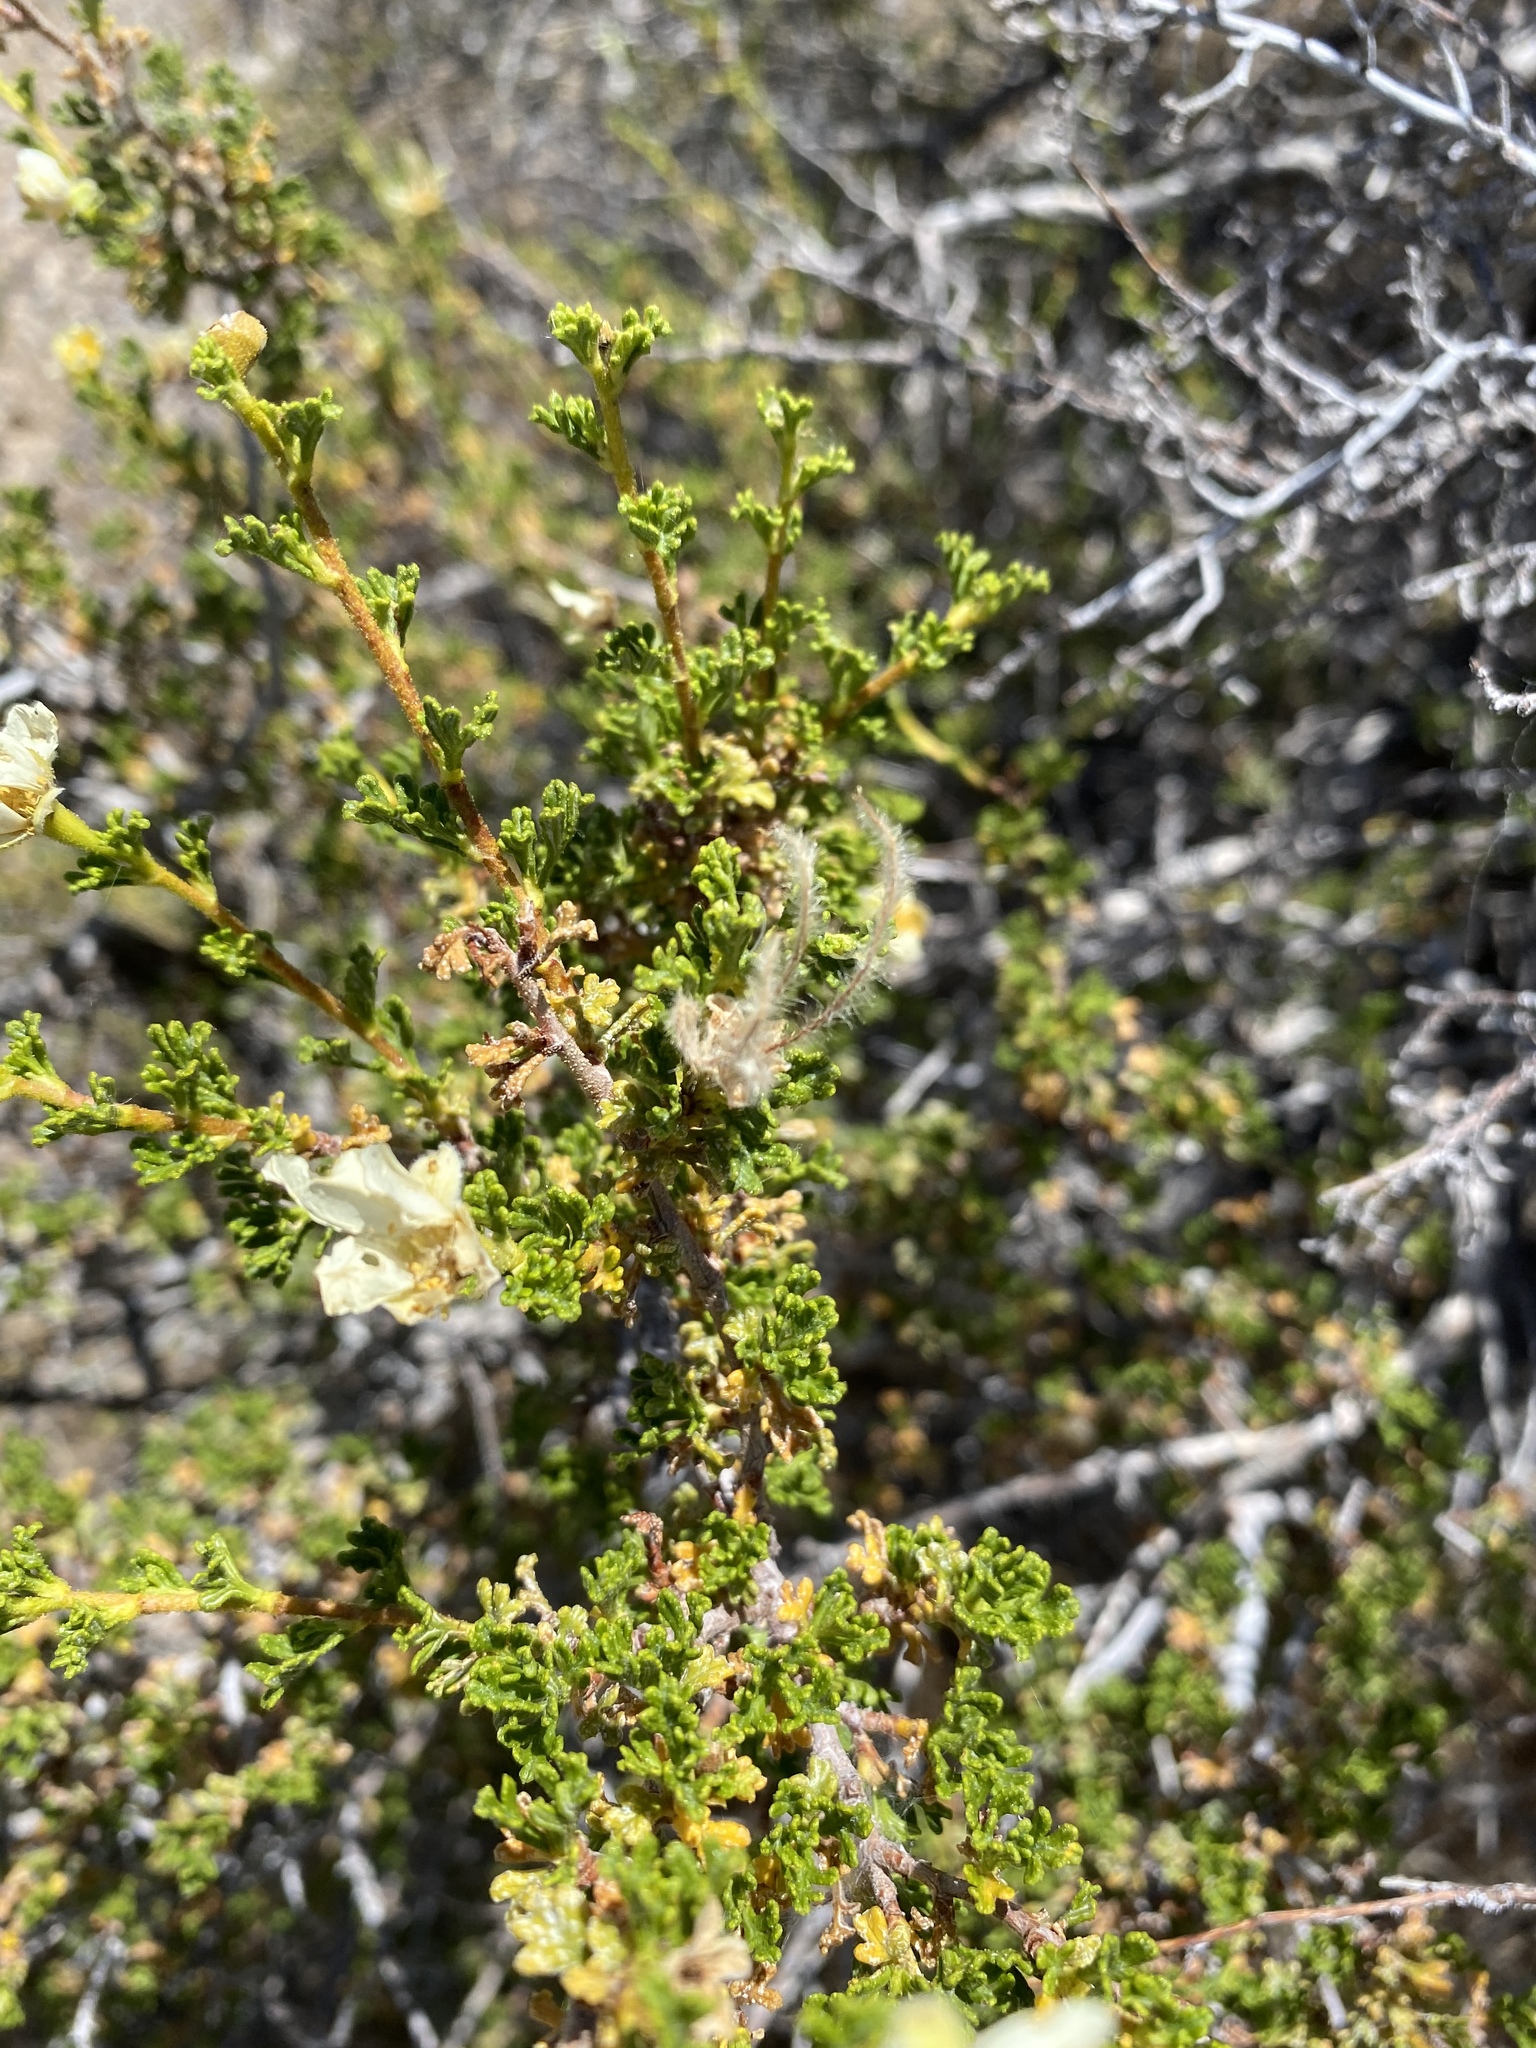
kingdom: Plantae
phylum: Tracheophyta
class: Magnoliopsida
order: Rosales
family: Rosaceae
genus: Purshia
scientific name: Purshia stansburiana
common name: Stansbury's cliffrose
